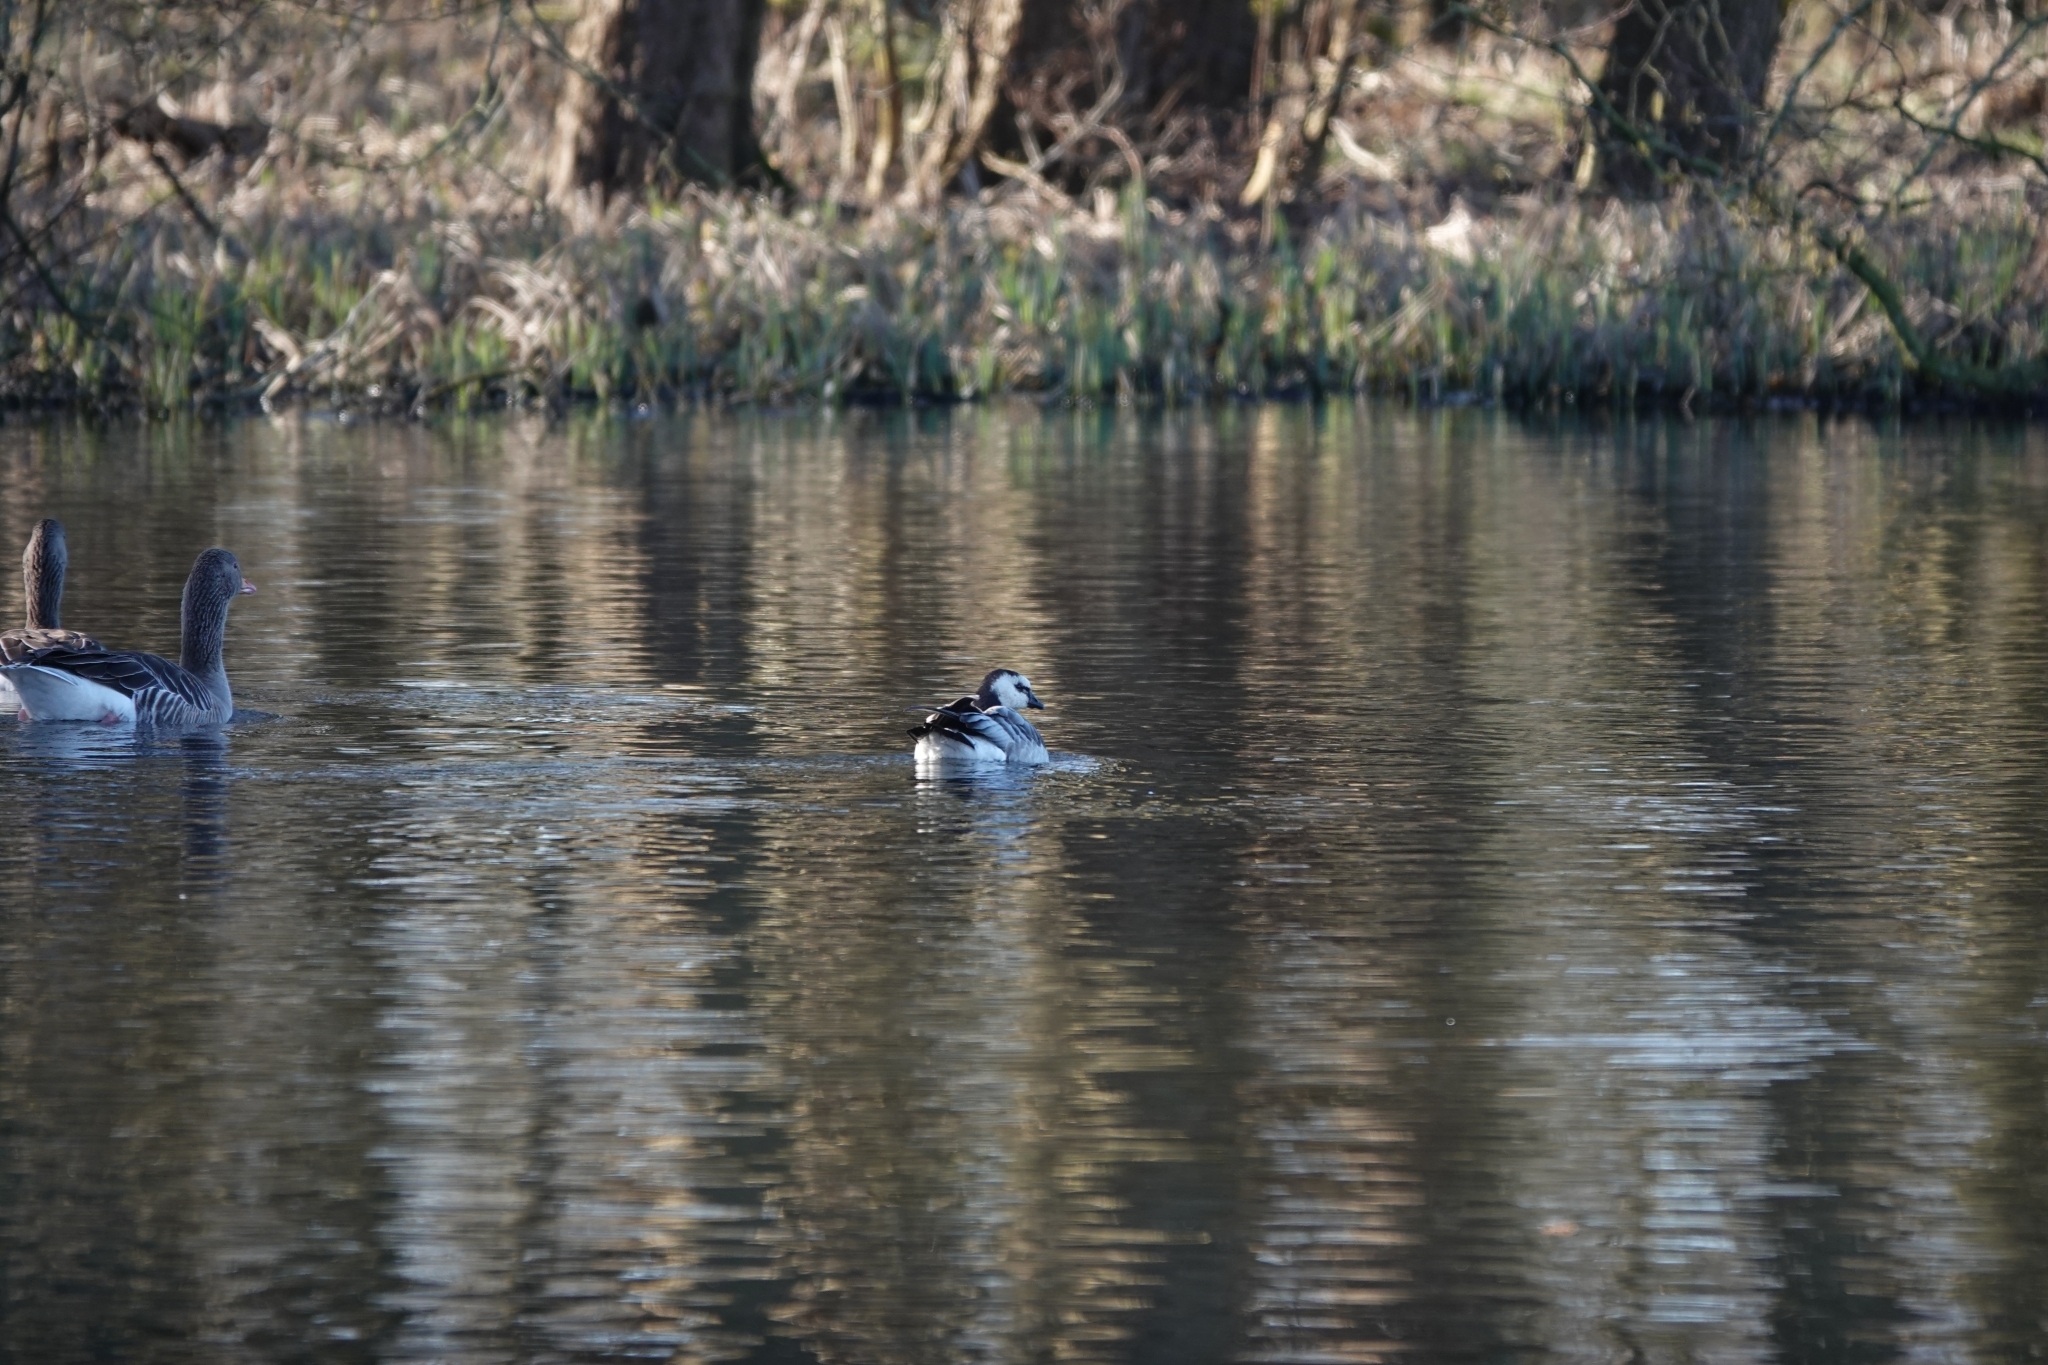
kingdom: Animalia
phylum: Chordata
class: Aves
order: Anseriformes
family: Anatidae
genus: Branta
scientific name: Branta leucopsis
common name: Barnacle goose
